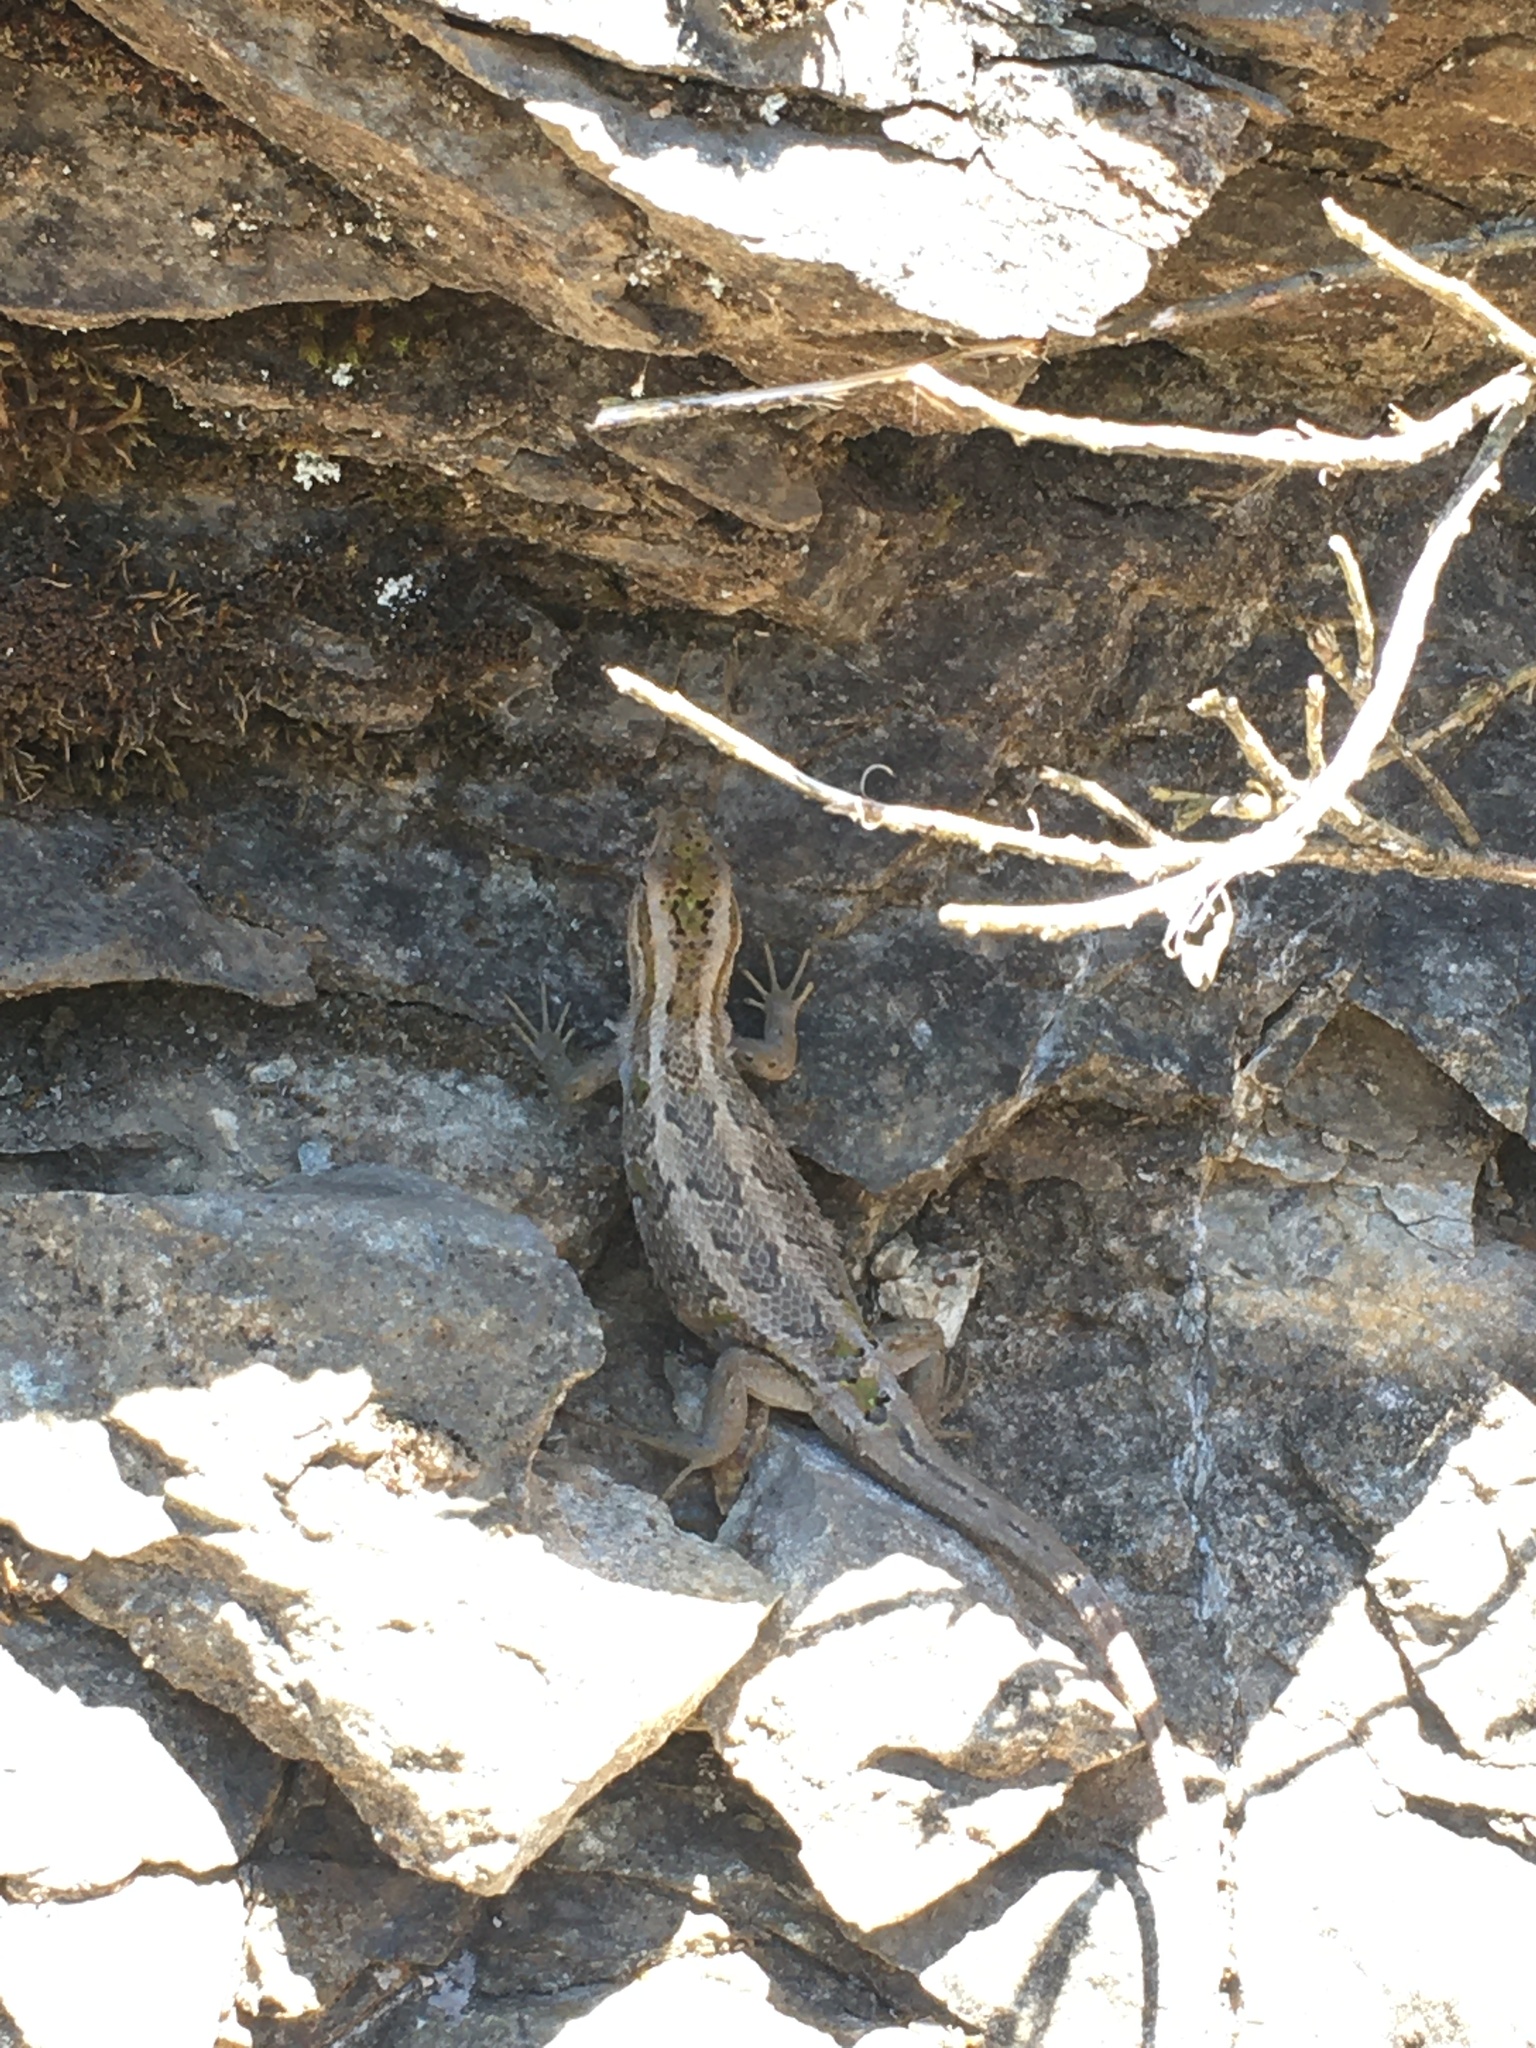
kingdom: Animalia
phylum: Chordata
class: Squamata
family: Liolaemidae
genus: Liolaemus
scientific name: Liolaemus schroederi
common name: Schroeder's tree iguana
